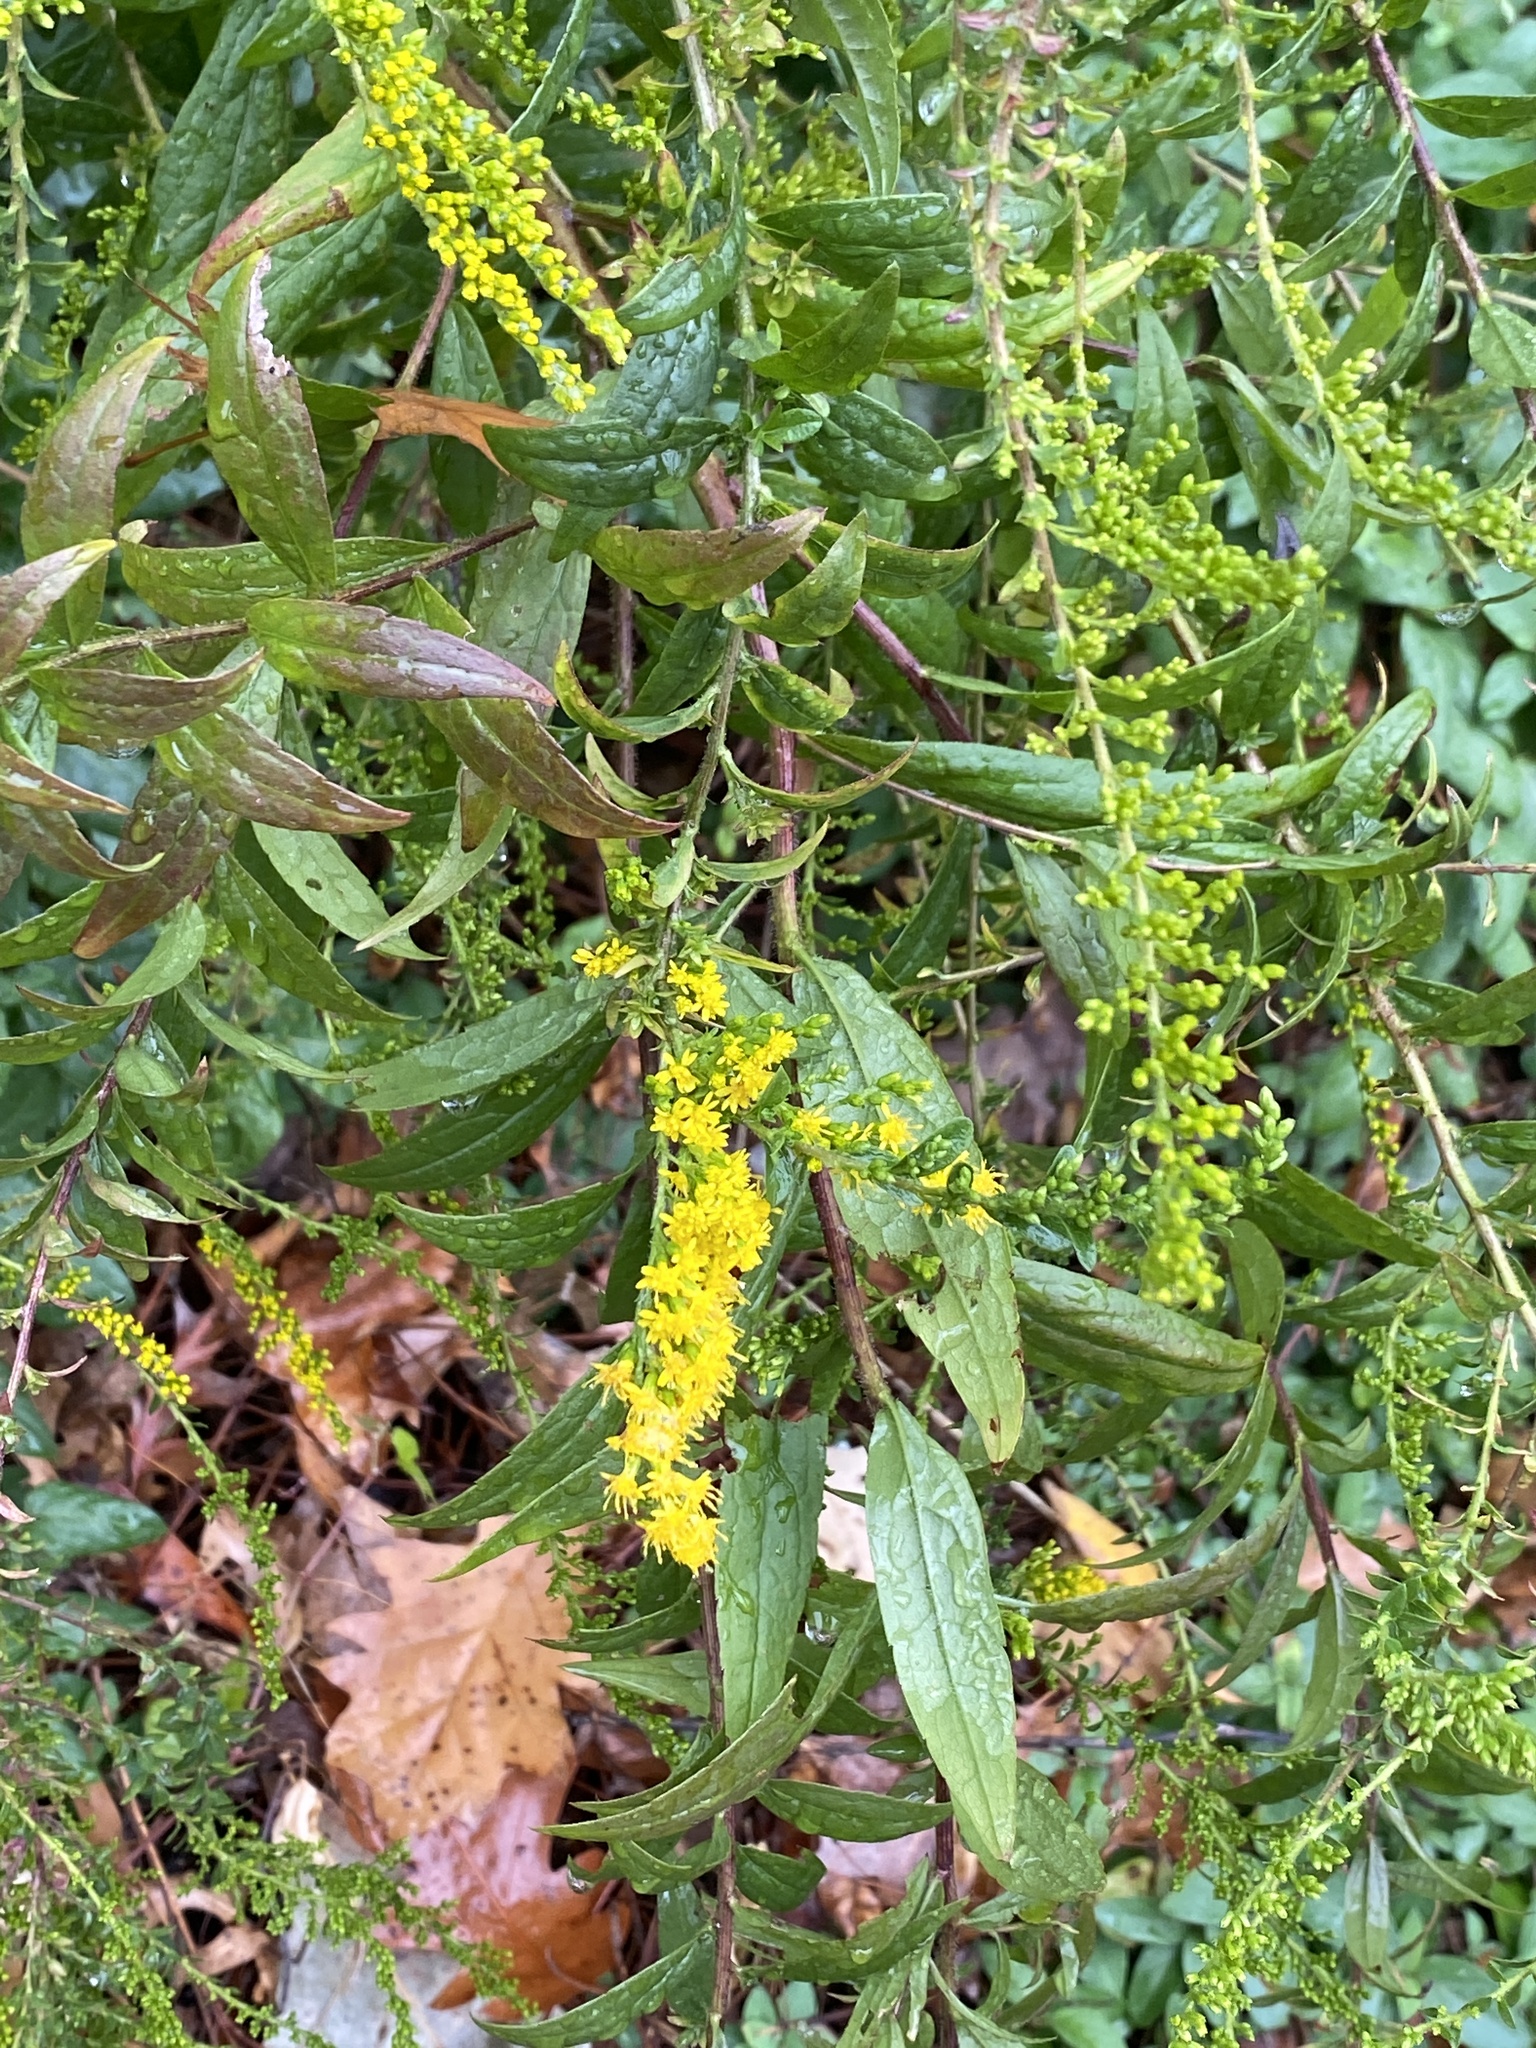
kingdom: Plantae
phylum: Tracheophyta
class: Magnoliopsida
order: Asterales
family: Asteraceae
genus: Solidago
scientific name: Solidago rugosa
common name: Rough-stemmed goldenrod
